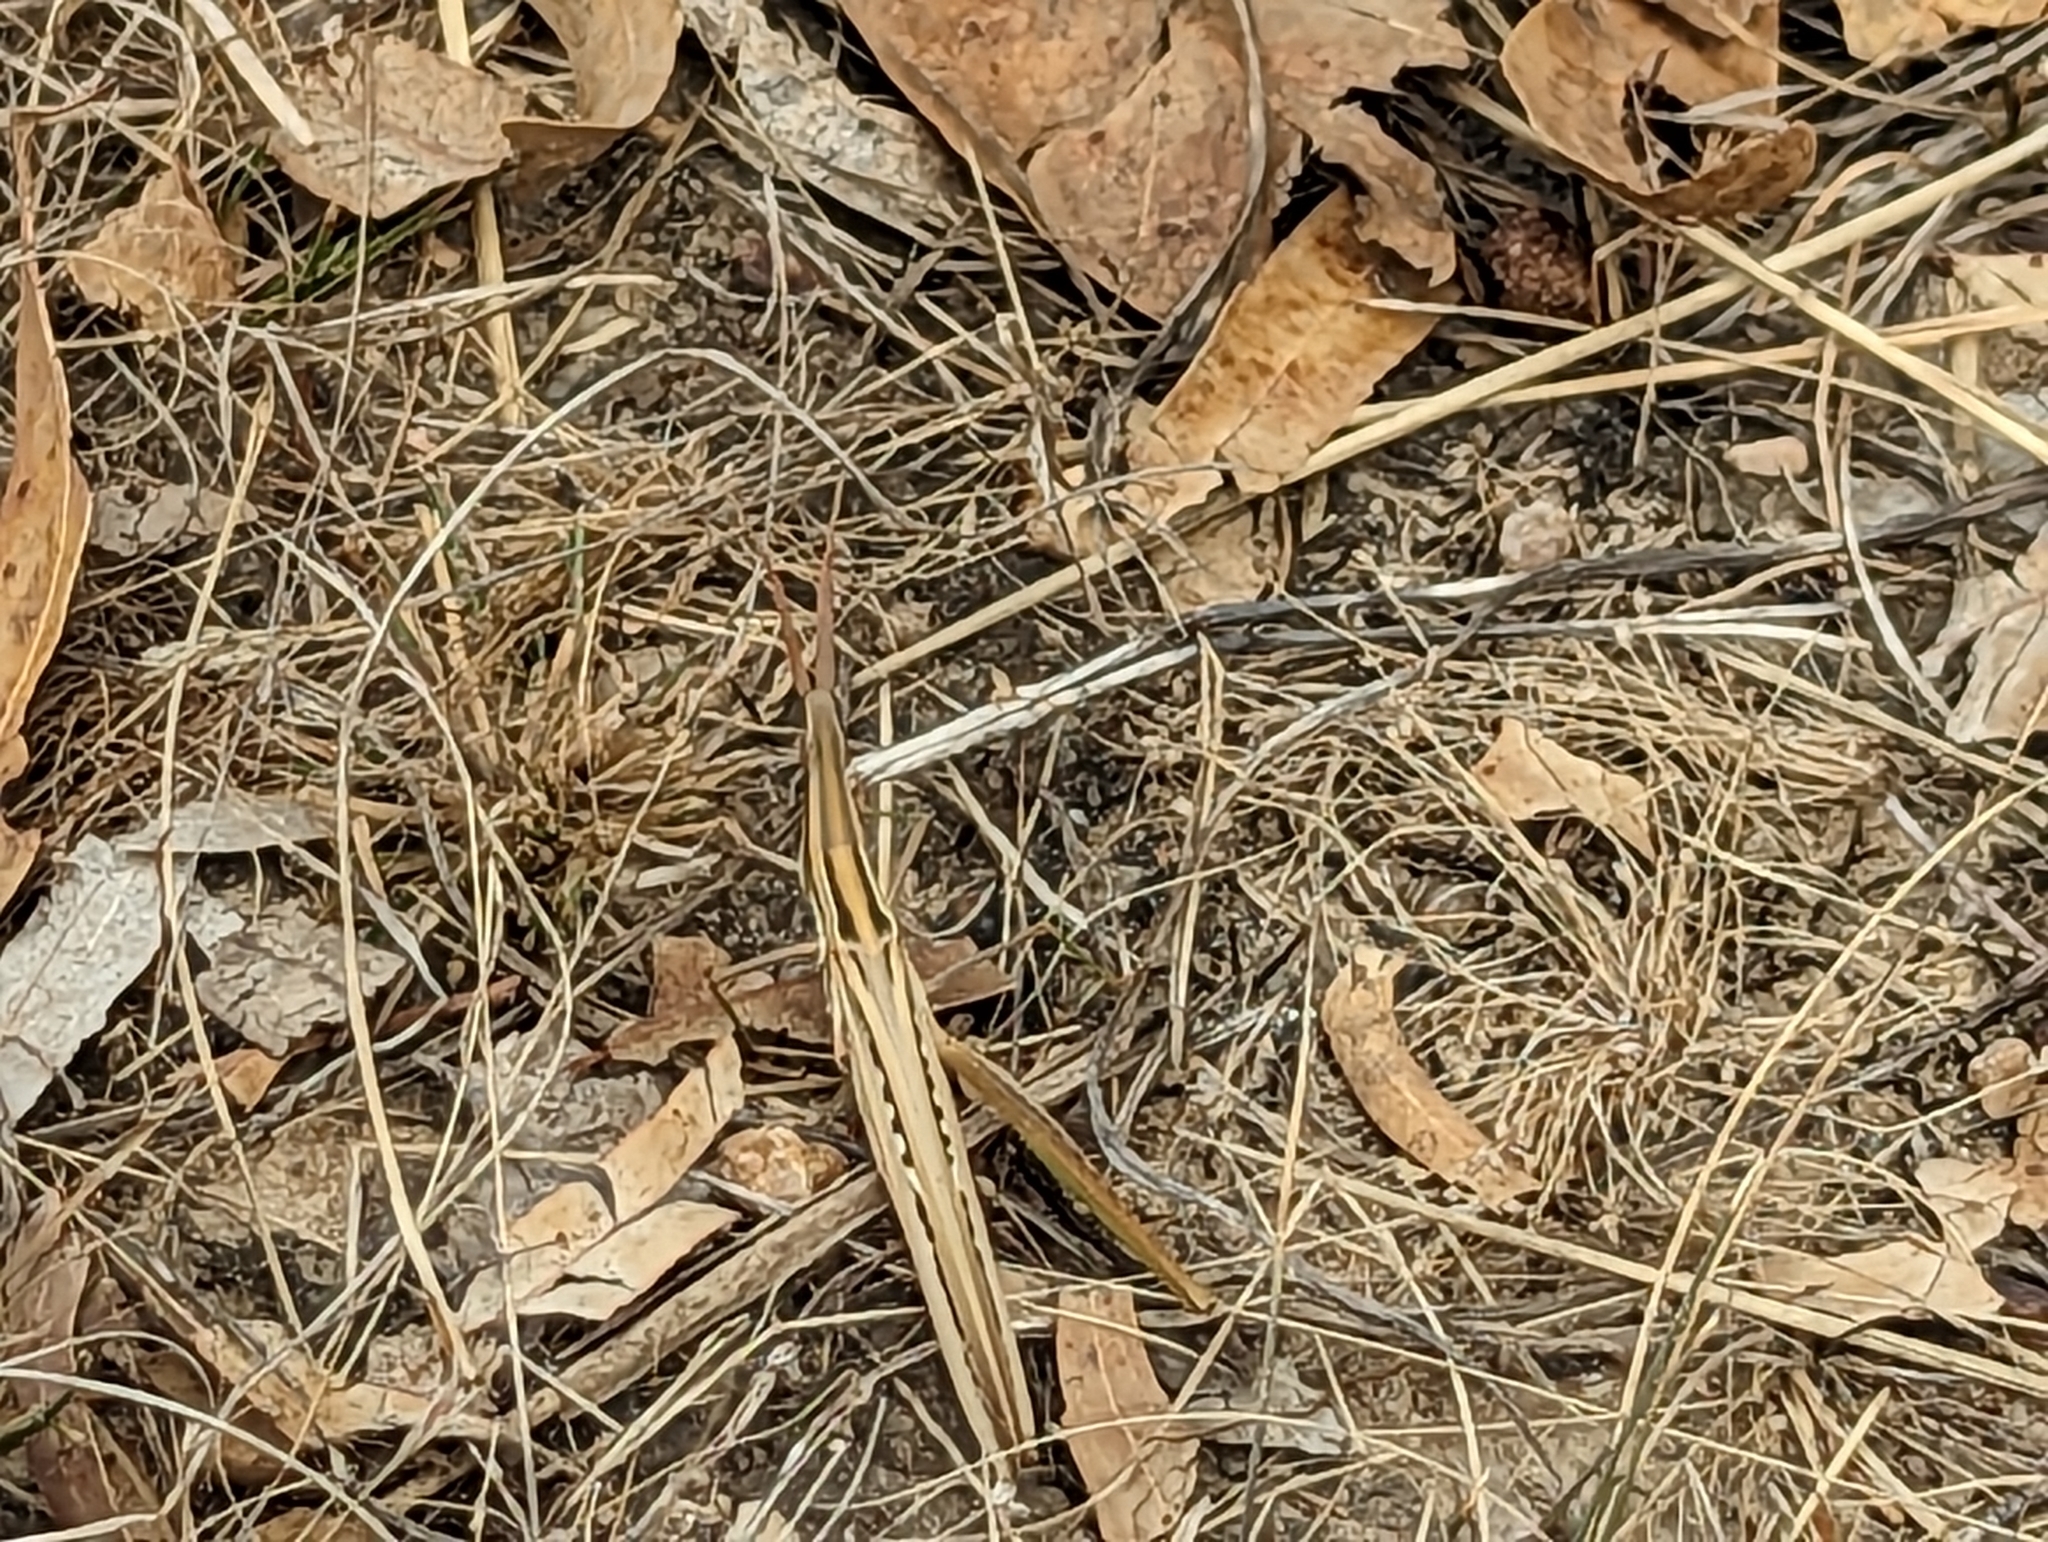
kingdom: Animalia
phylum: Arthropoda
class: Insecta
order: Orthoptera
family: Acrididae
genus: Acrida
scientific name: Acrida conica
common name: Giant green slantface
